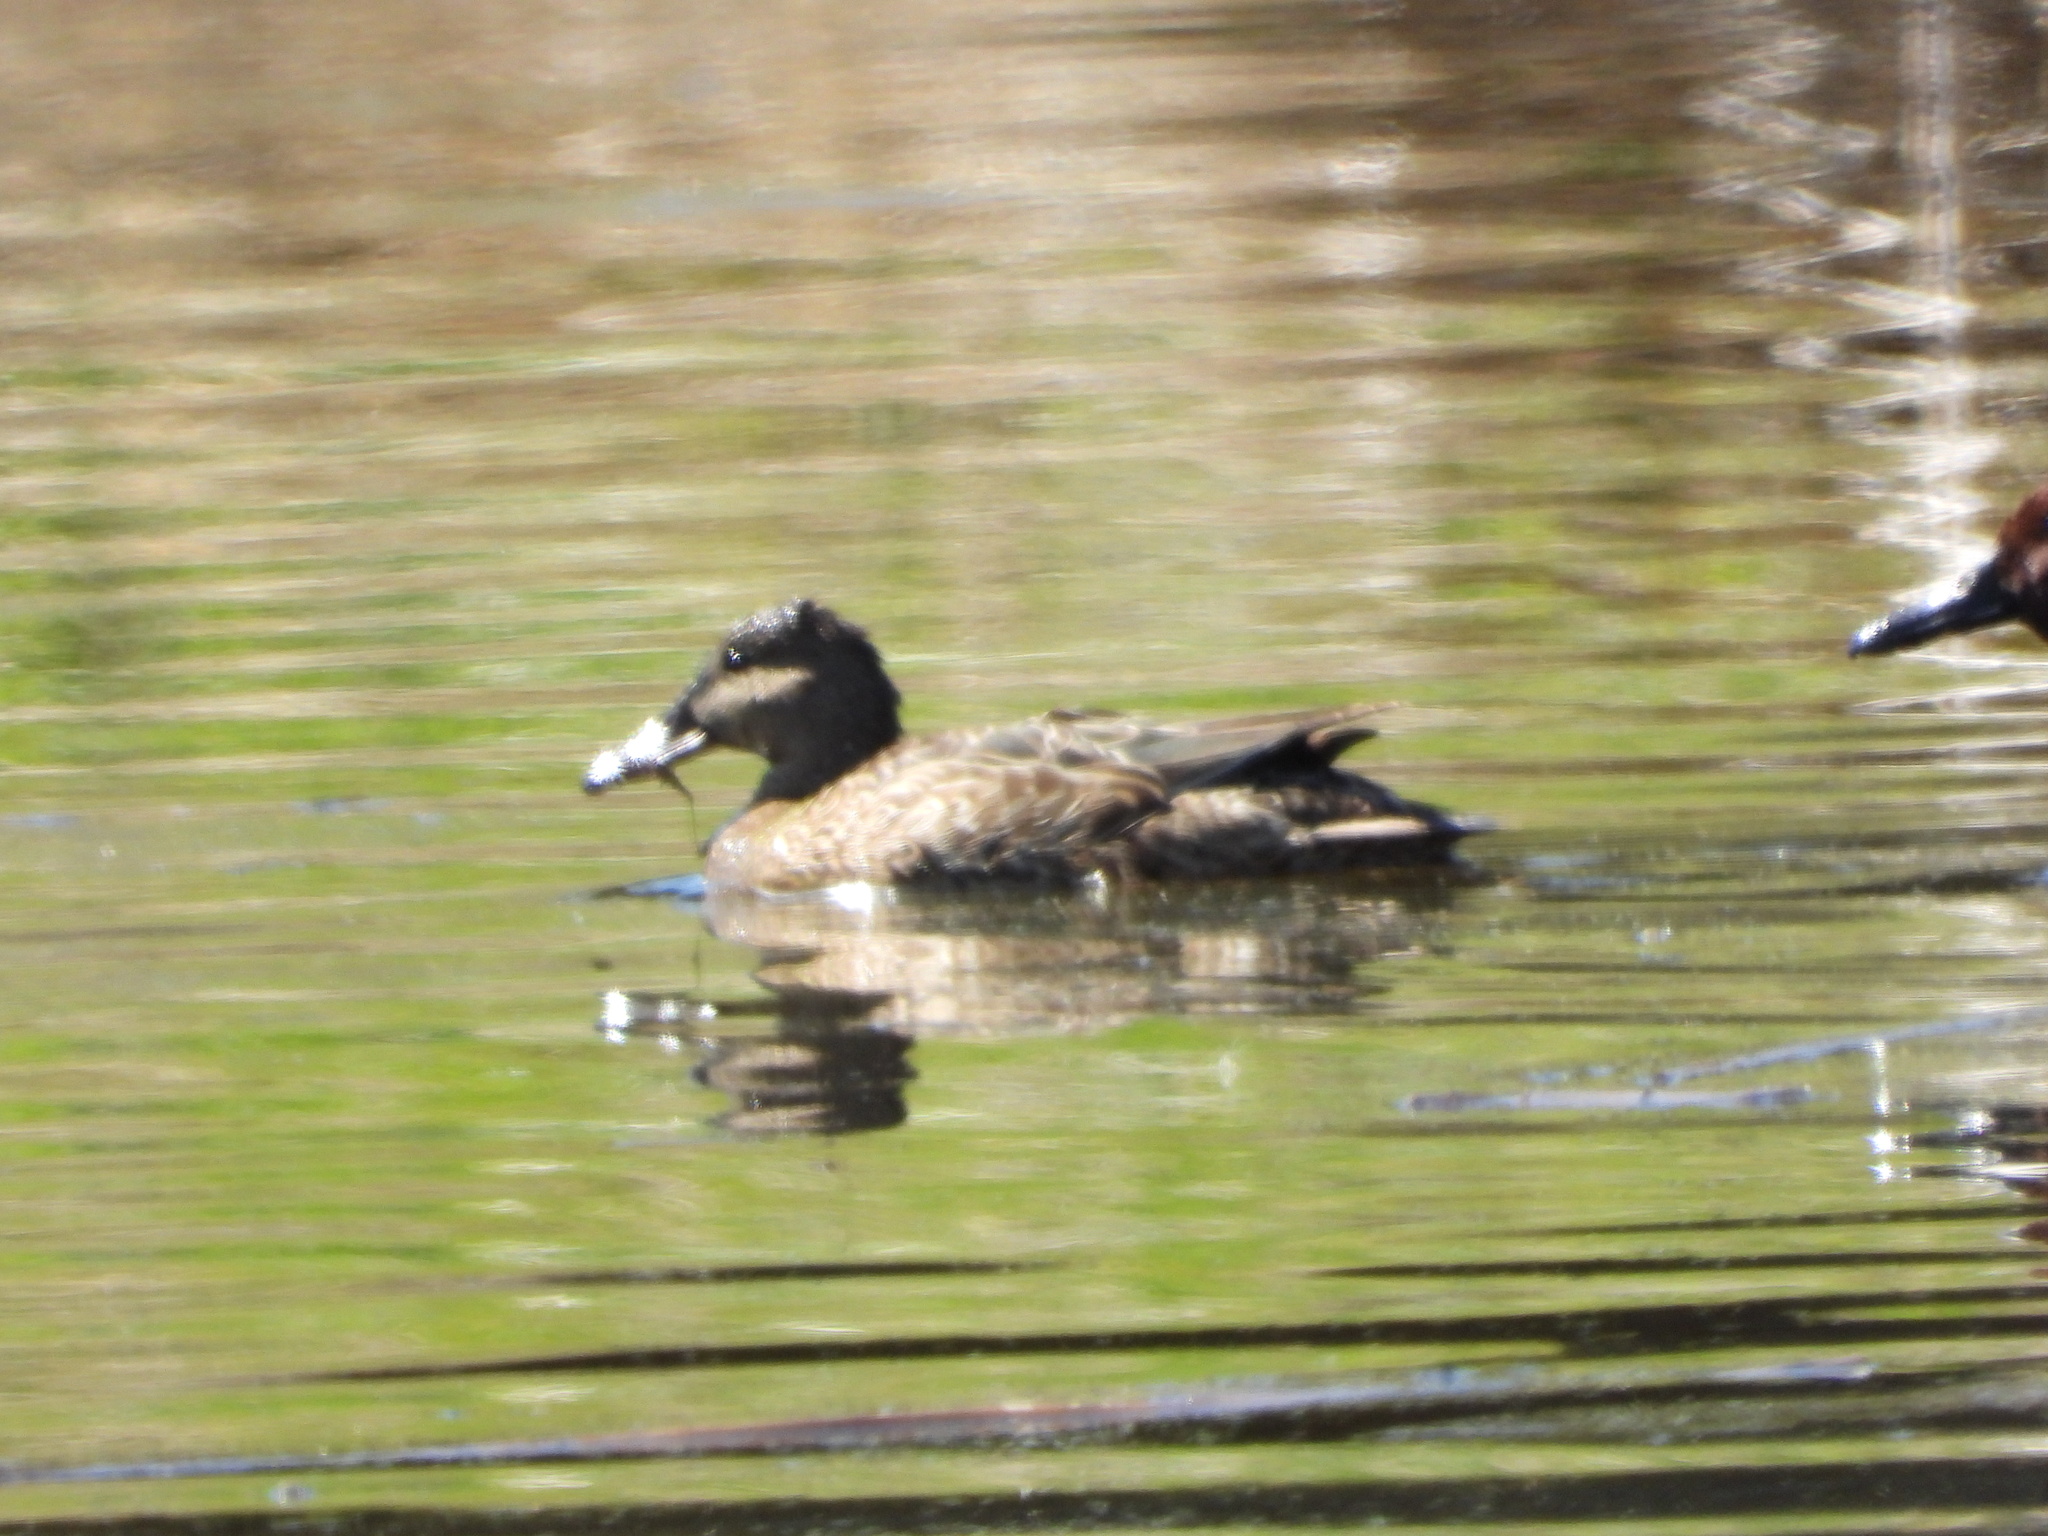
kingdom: Animalia
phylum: Chordata
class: Aves
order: Anseriformes
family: Anatidae
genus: Spatula
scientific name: Spatula cyanoptera
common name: Cinnamon teal
